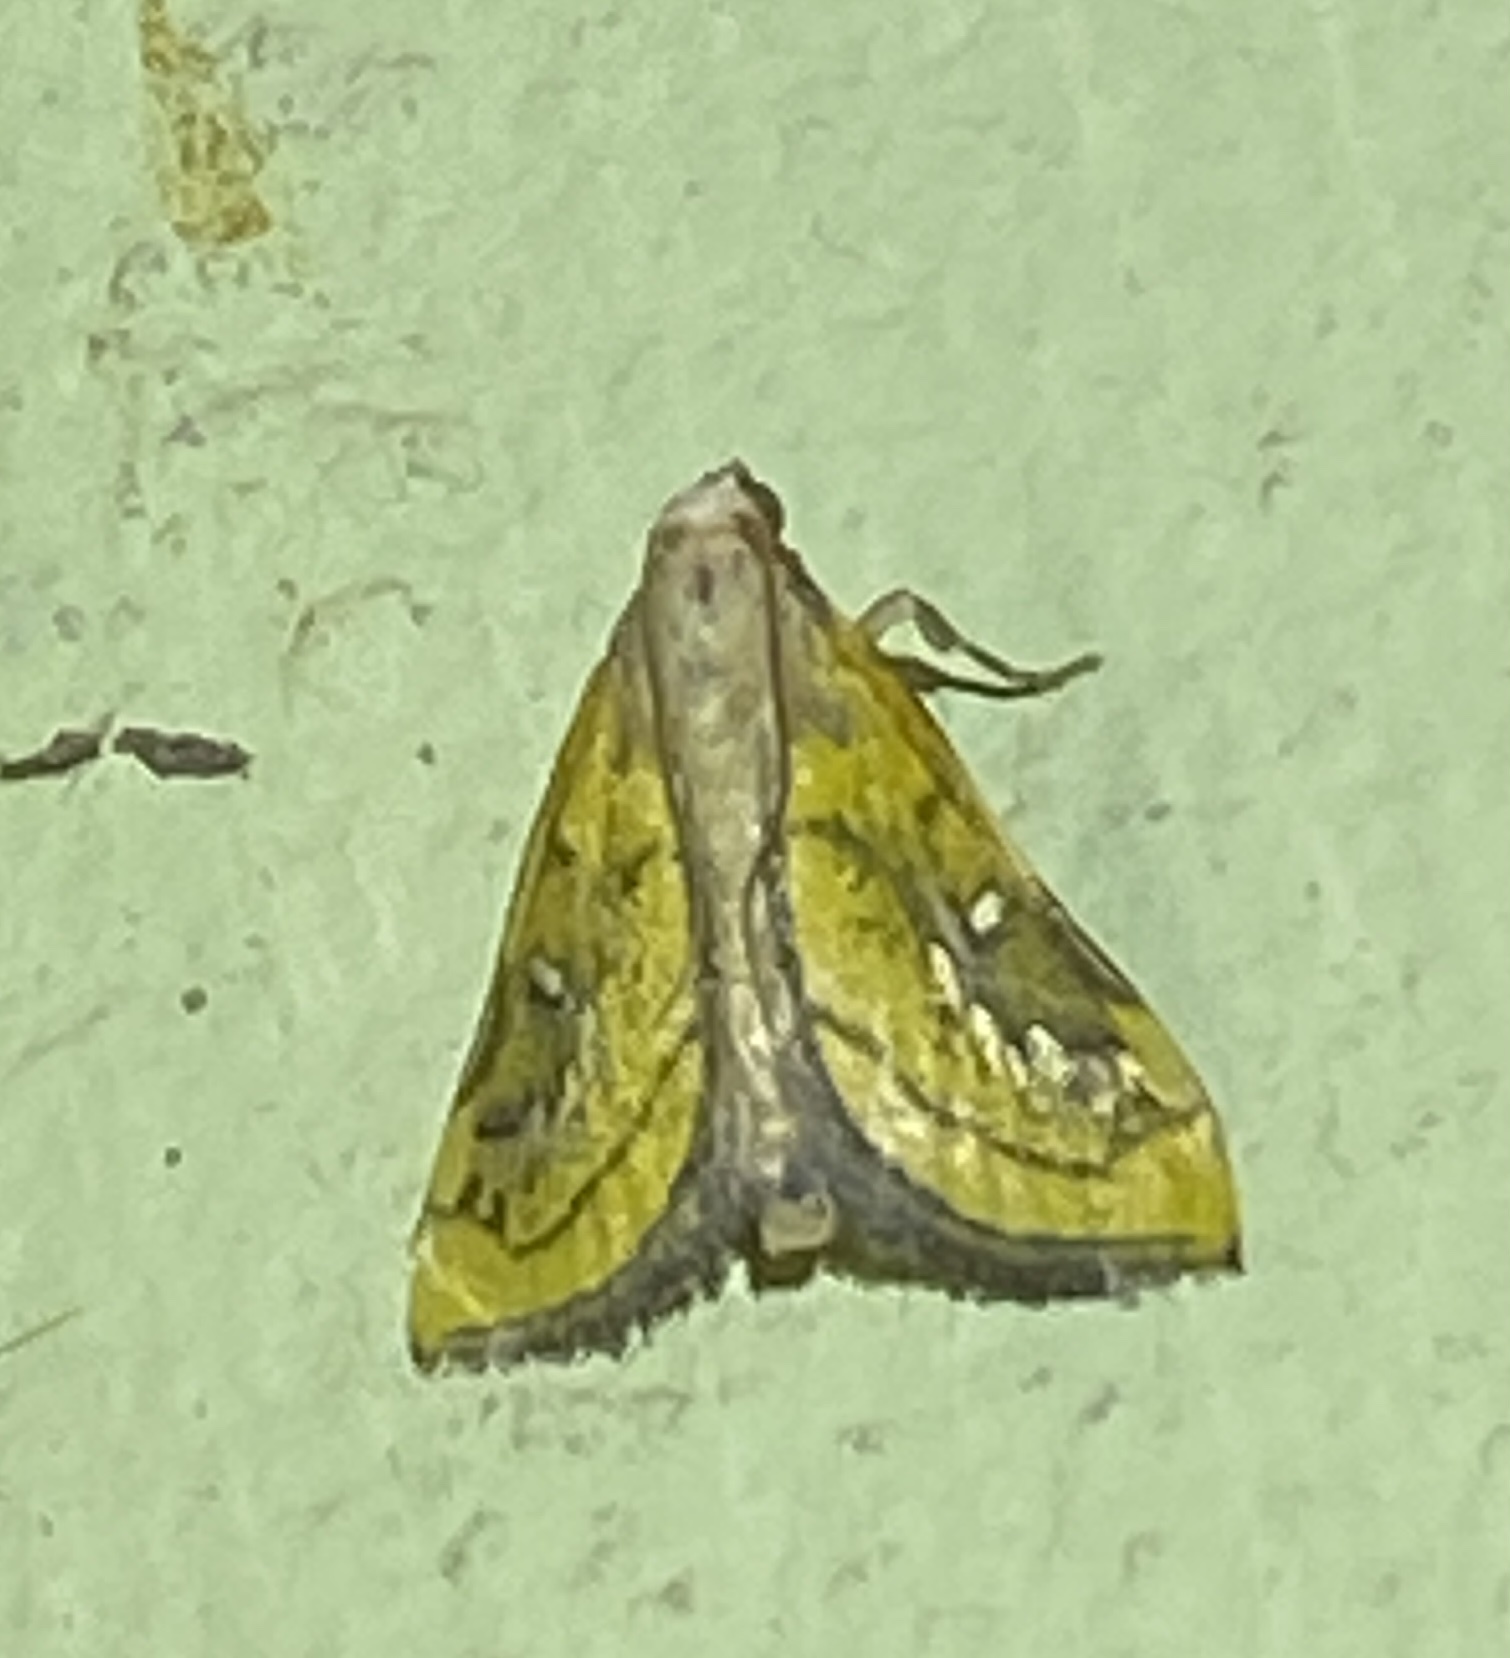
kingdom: Animalia
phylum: Arthropoda
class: Insecta
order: Lepidoptera
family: Crambidae
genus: Boeotarcha
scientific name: Boeotarcha coemaroalis
